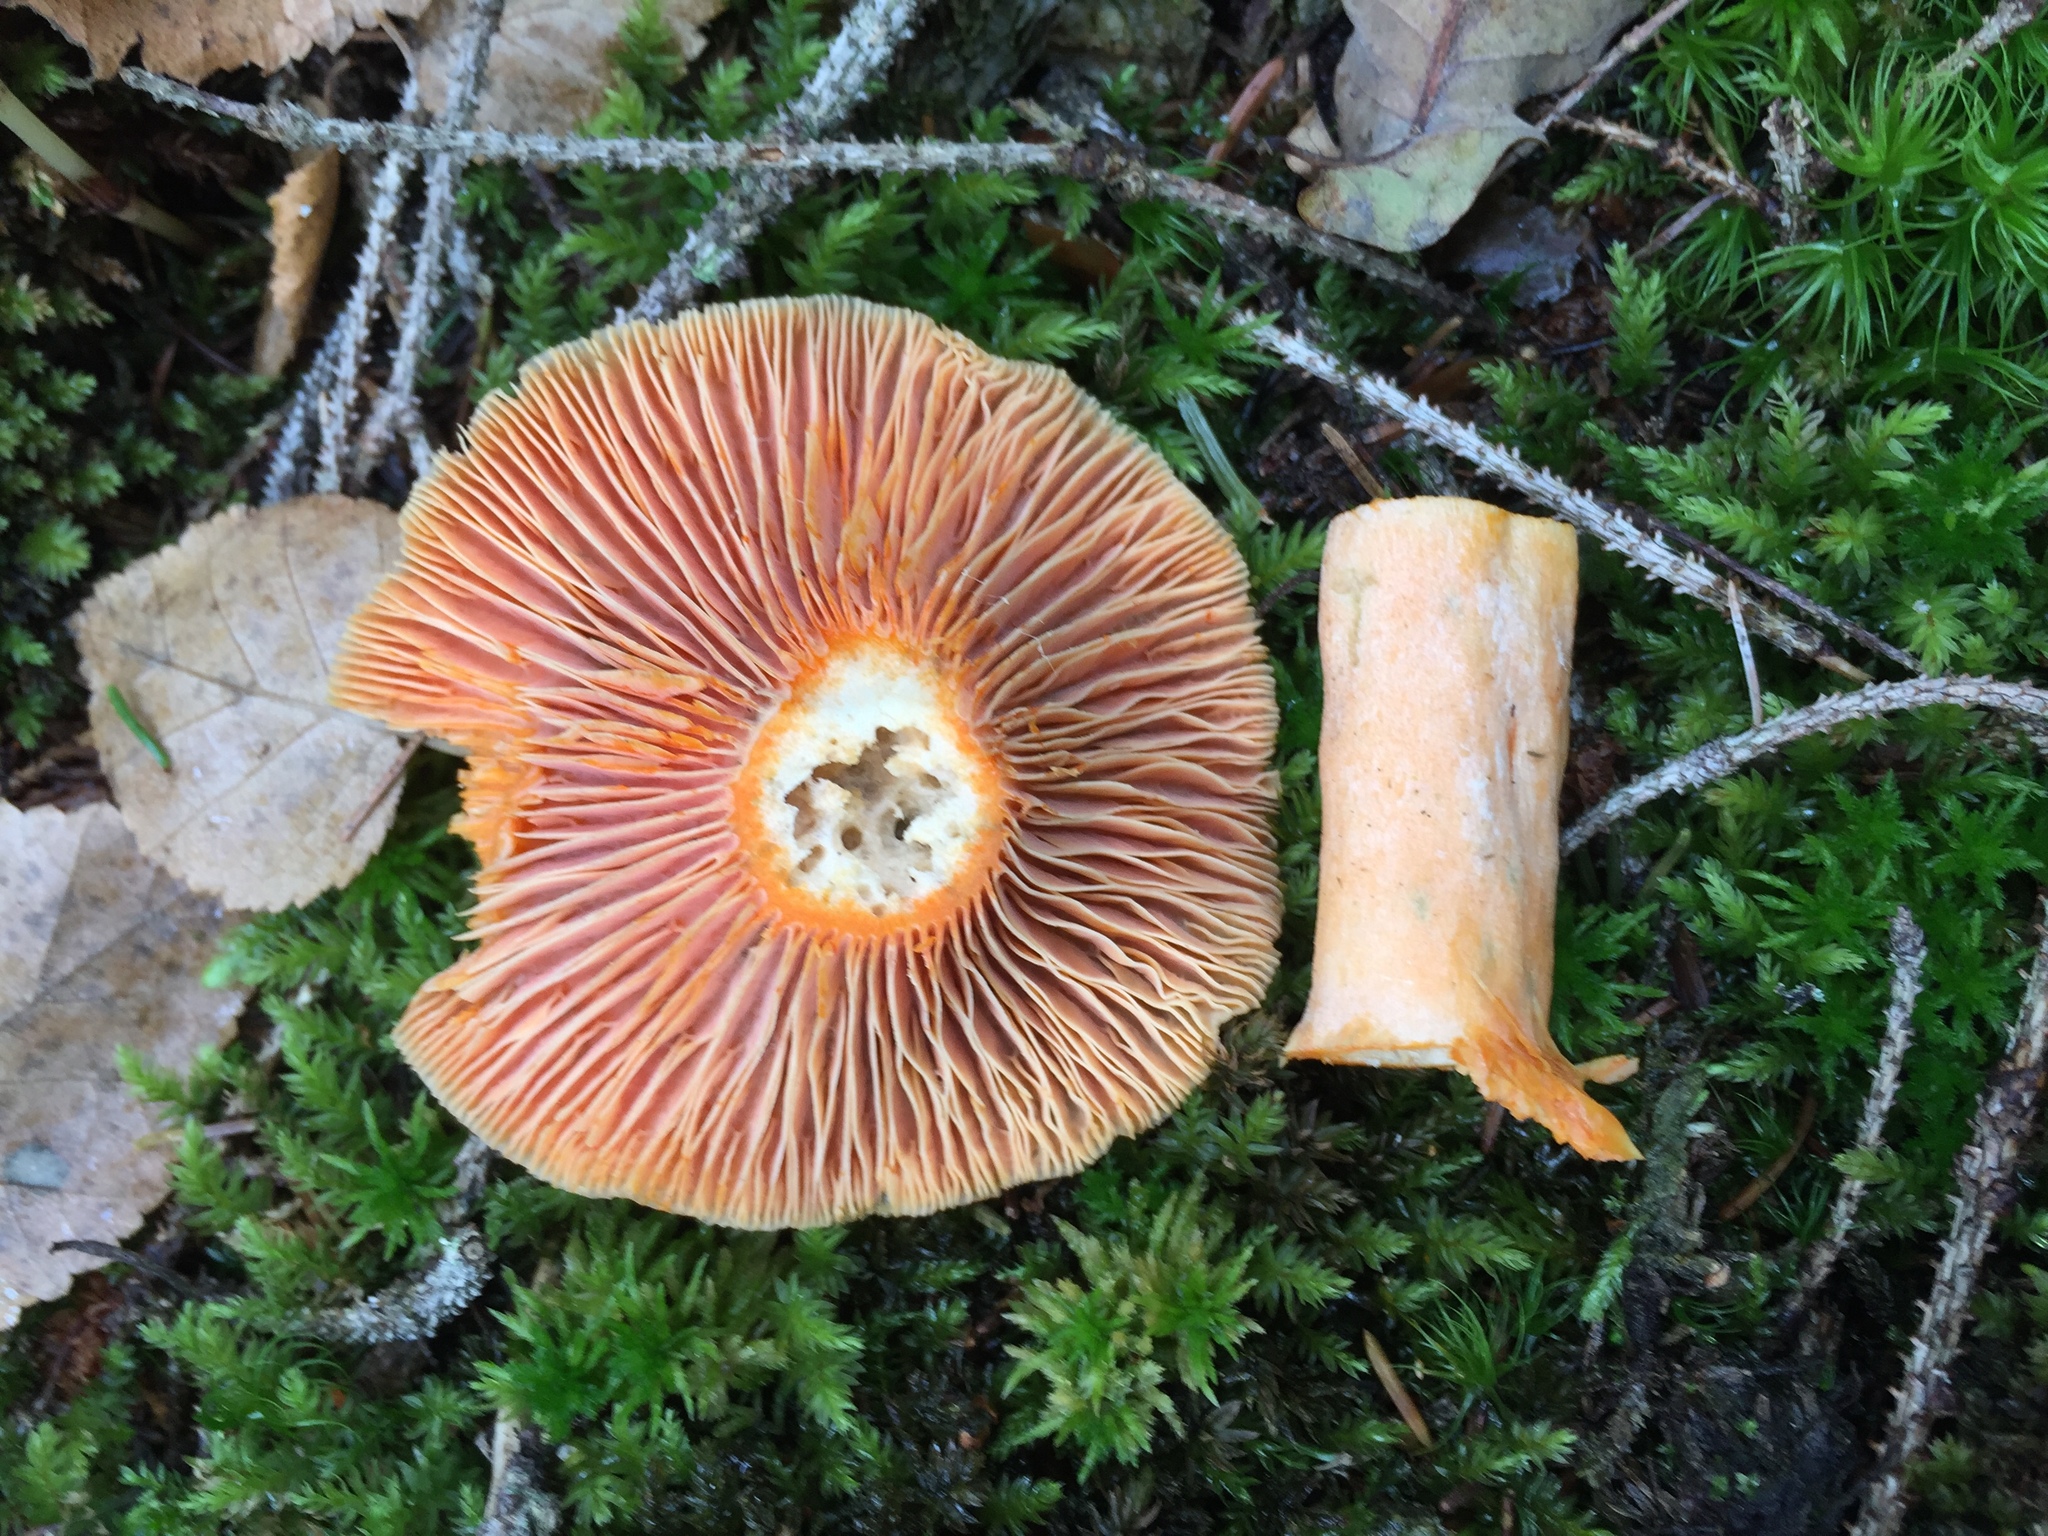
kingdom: Fungi
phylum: Basidiomycota
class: Agaricomycetes
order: Russulales
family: Russulaceae
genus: Lactarius
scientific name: Lactarius deterrimus
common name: False saffron milkcap
